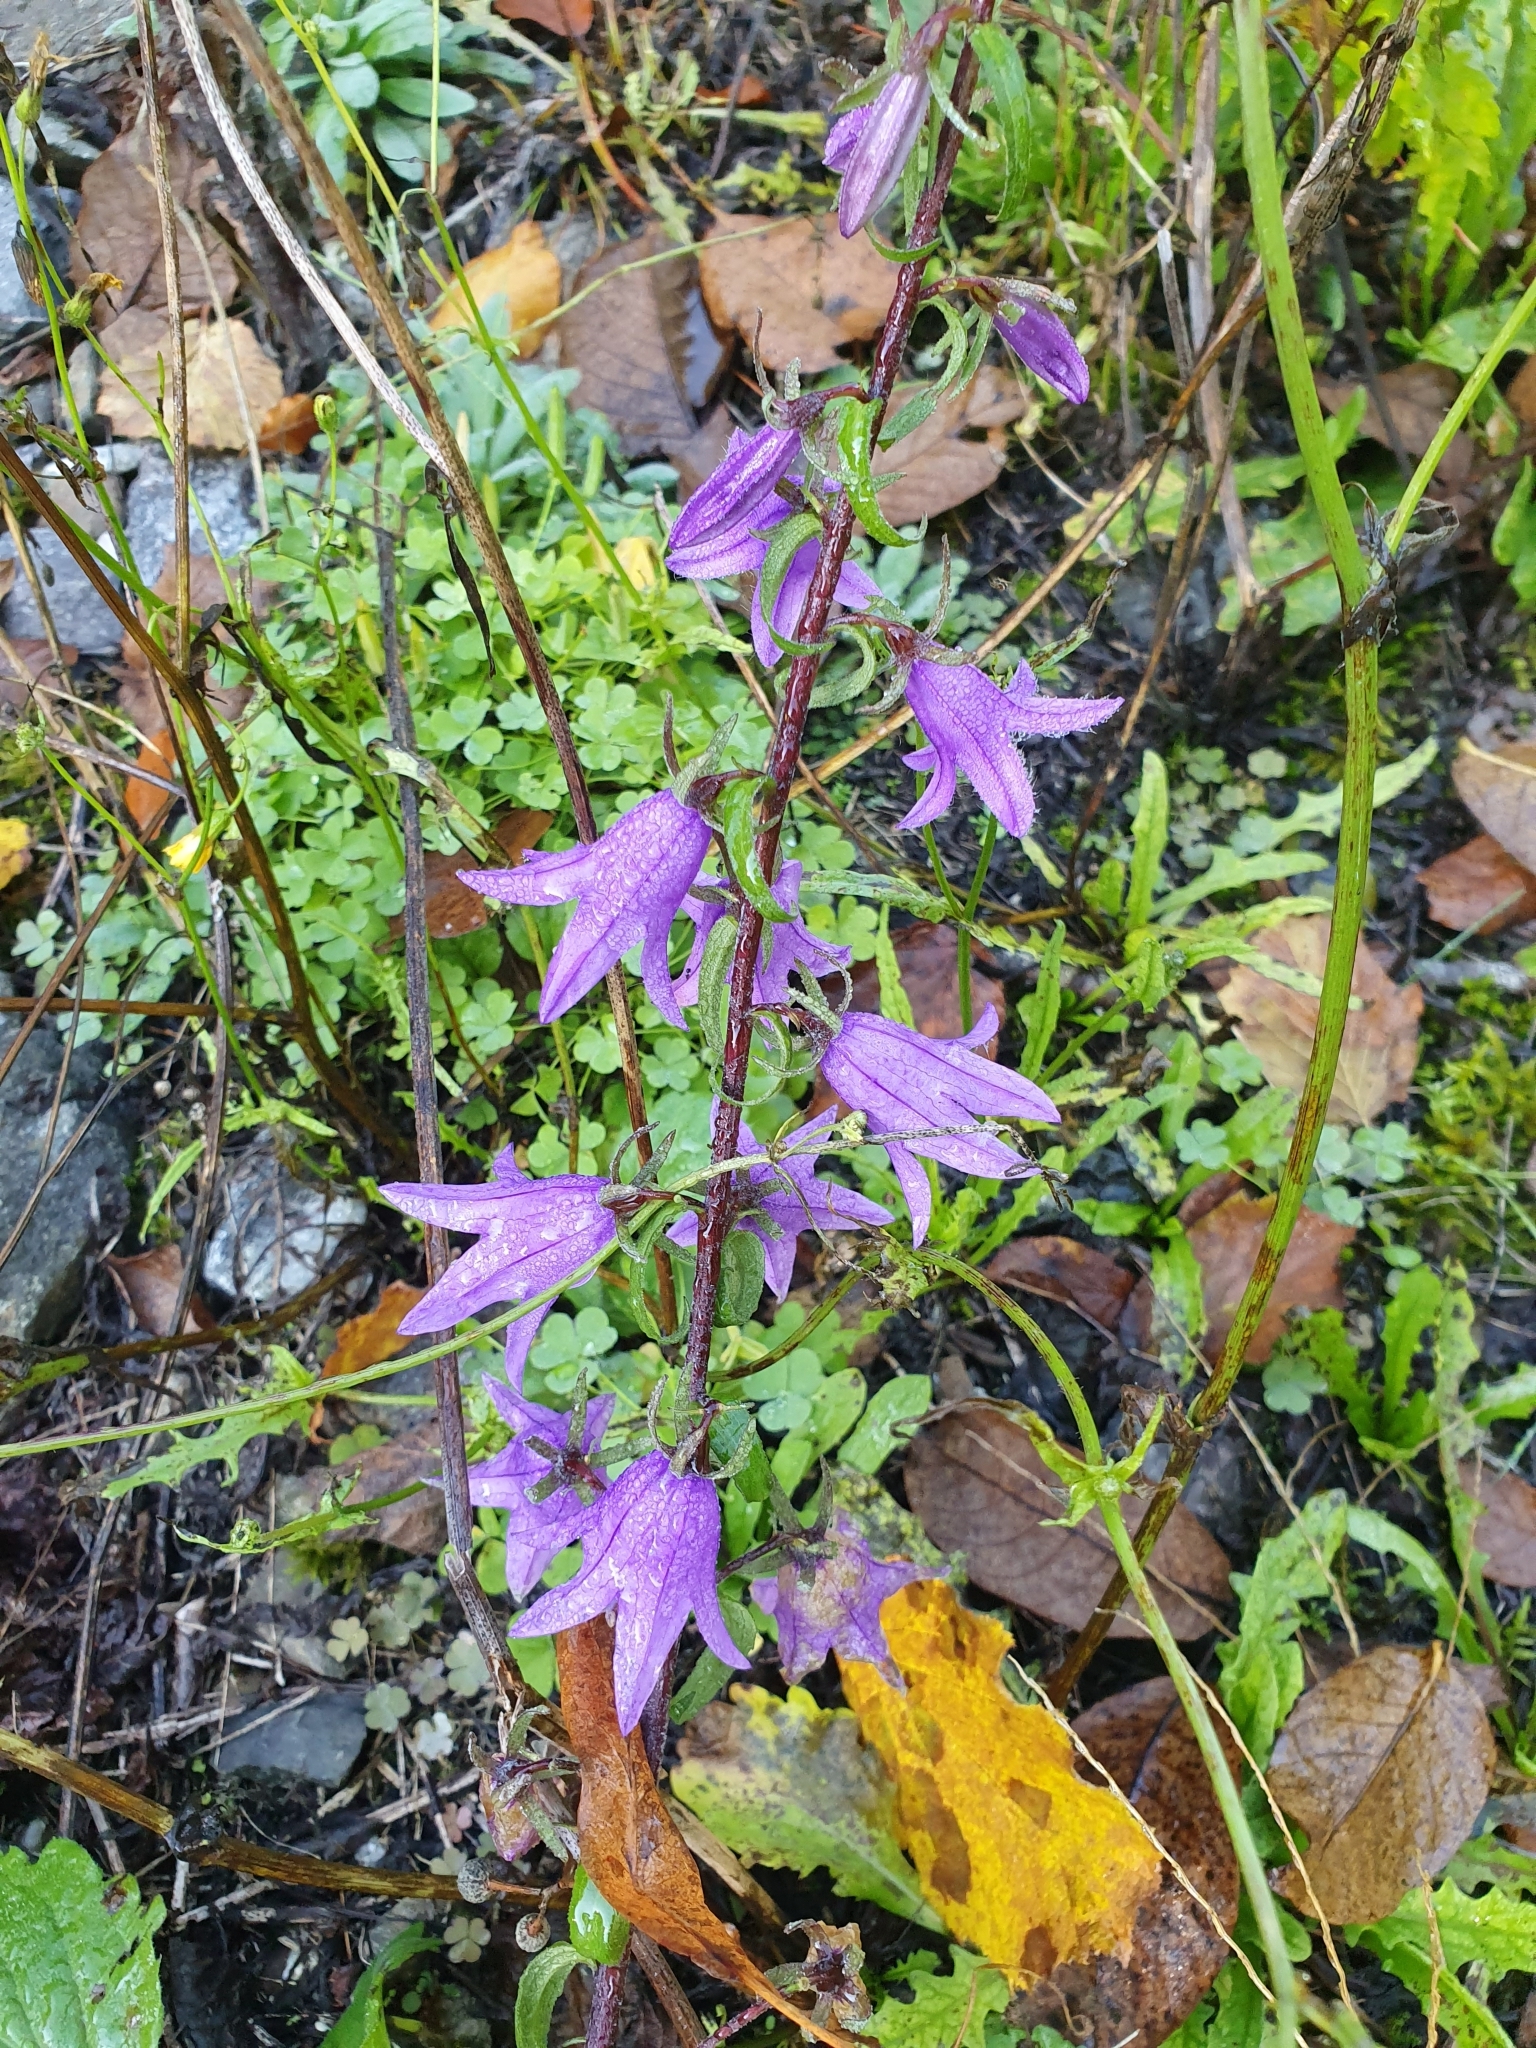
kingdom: Plantae
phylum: Tracheophyta
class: Magnoliopsida
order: Asterales
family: Campanulaceae
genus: Campanula
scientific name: Campanula rapunculoides
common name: Creeping bellflower
